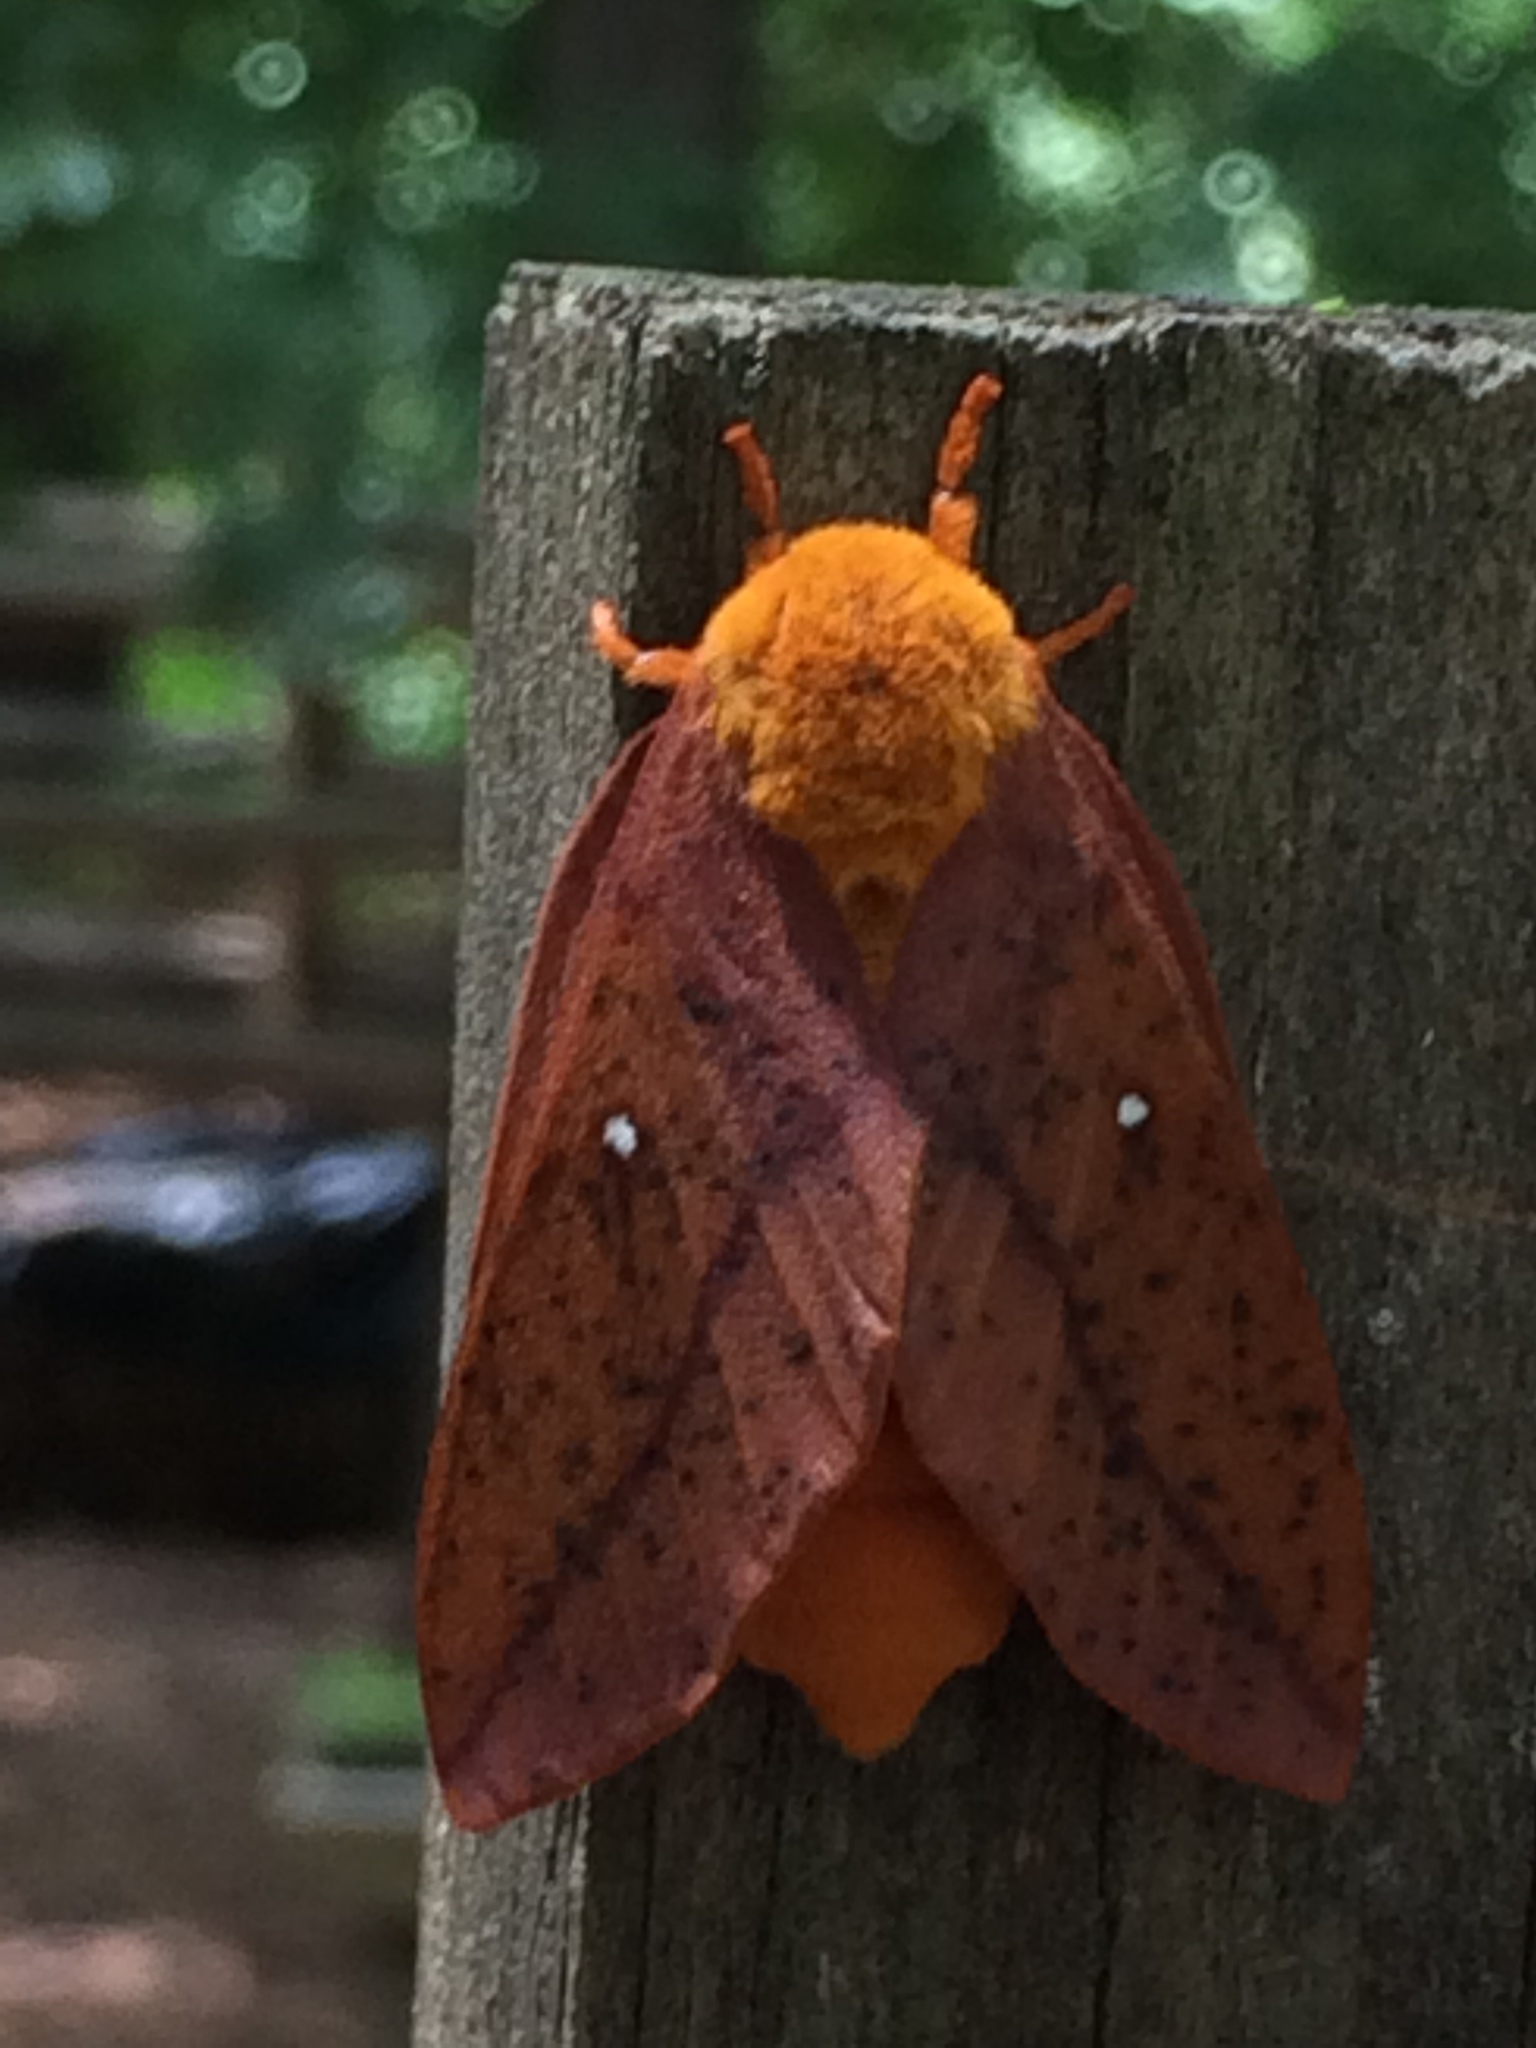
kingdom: Animalia
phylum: Arthropoda
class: Insecta
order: Lepidoptera
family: Saturniidae
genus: Anisota
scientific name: Anisota senatoria
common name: Orange-striped oakworm moth
